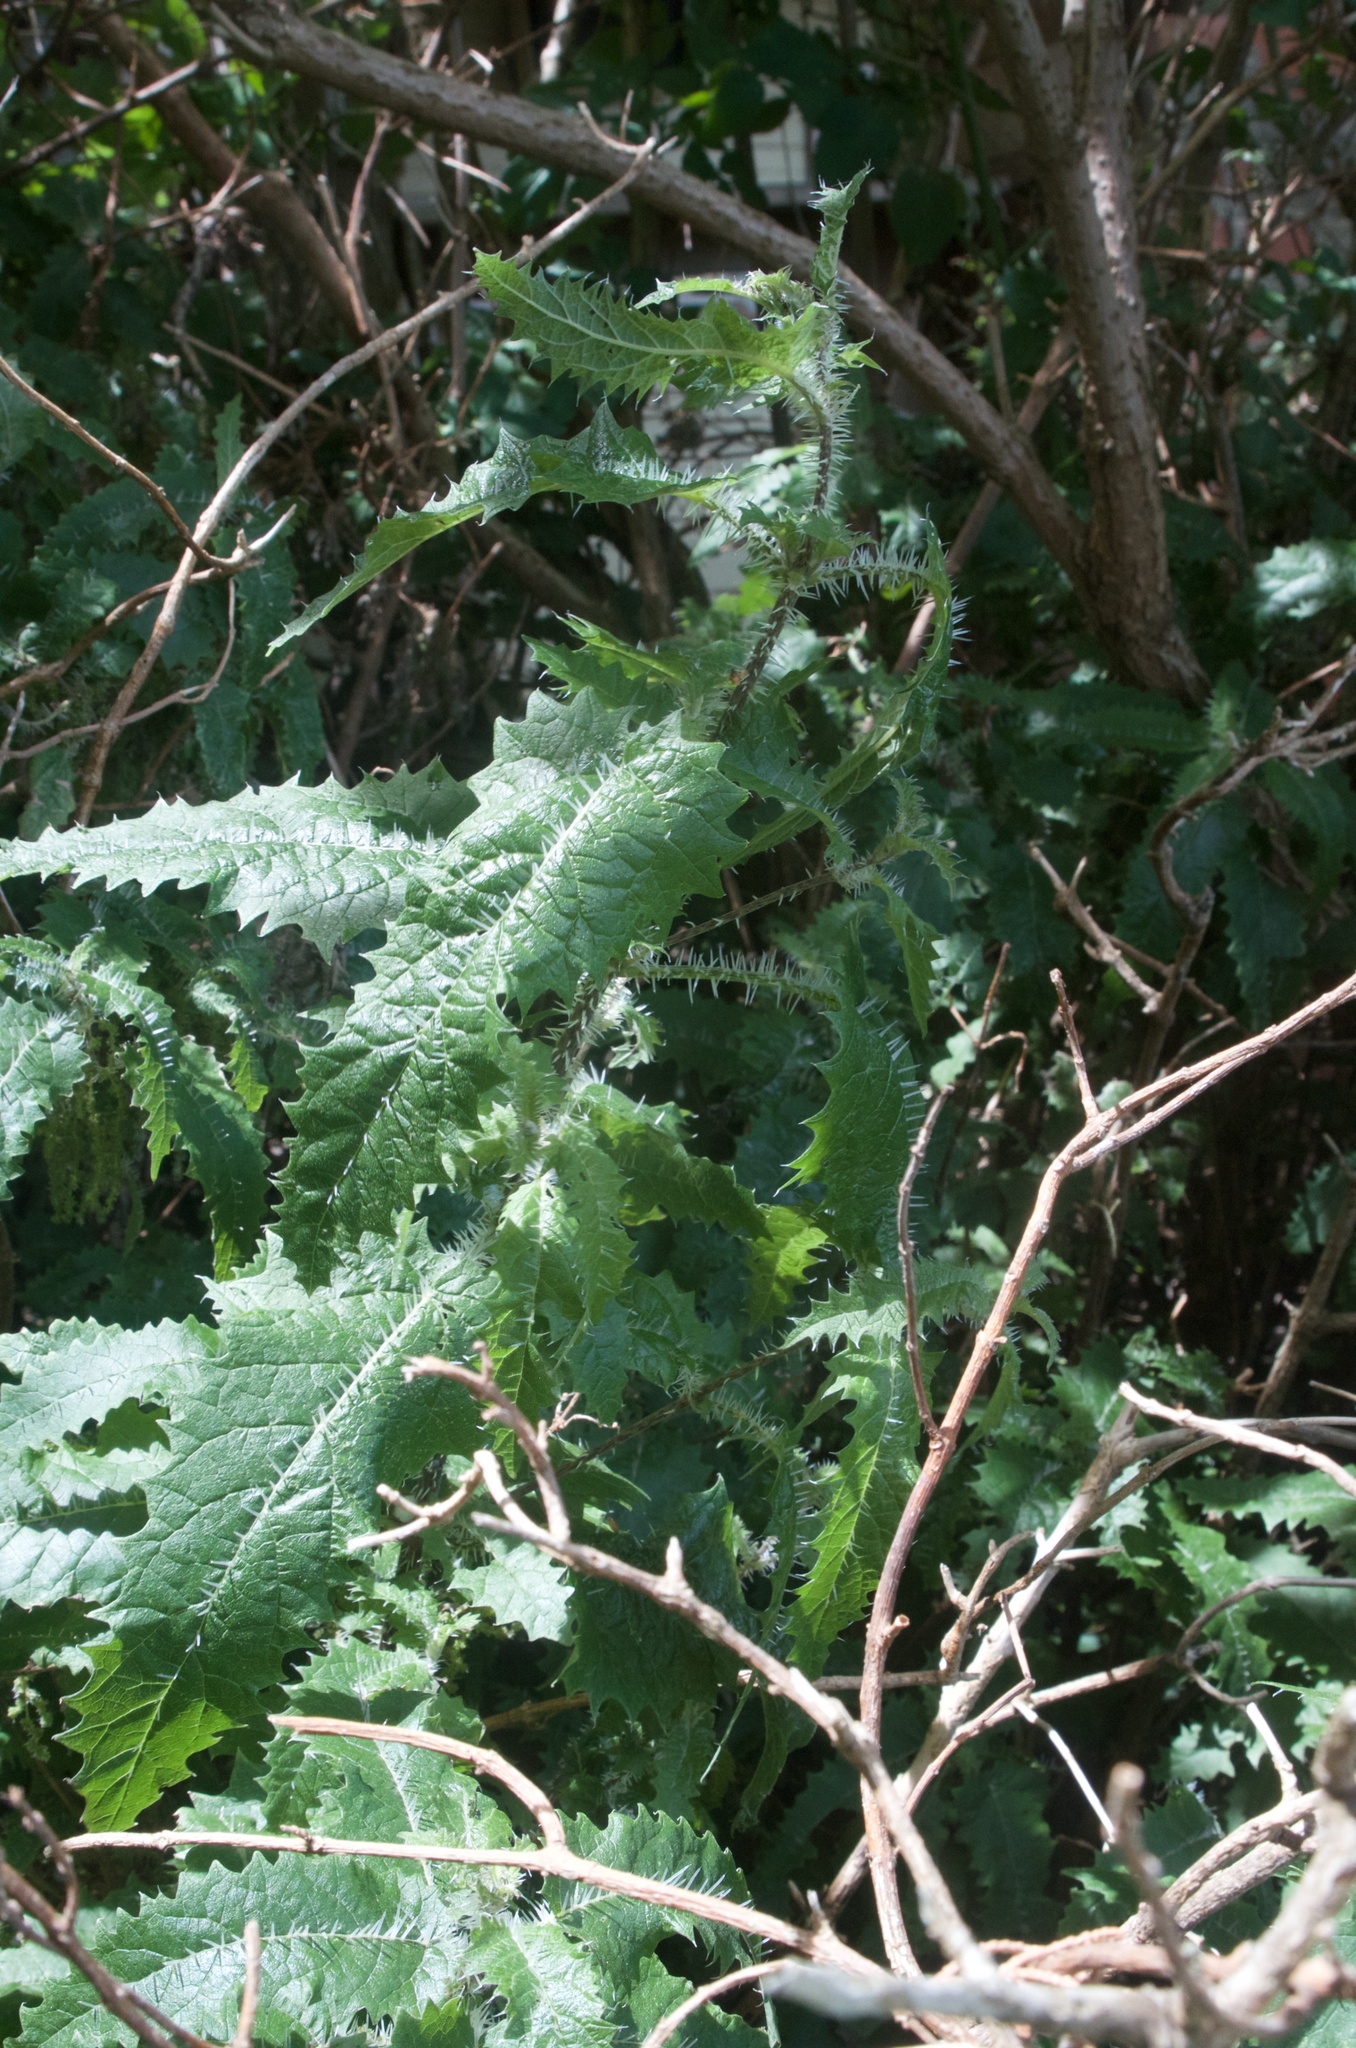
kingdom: Plantae
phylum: Tracheophyta
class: Magnoliopsida
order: Rosales
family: Urticaceae
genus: Urtica
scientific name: Urtica ferox
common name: Tree nettle
